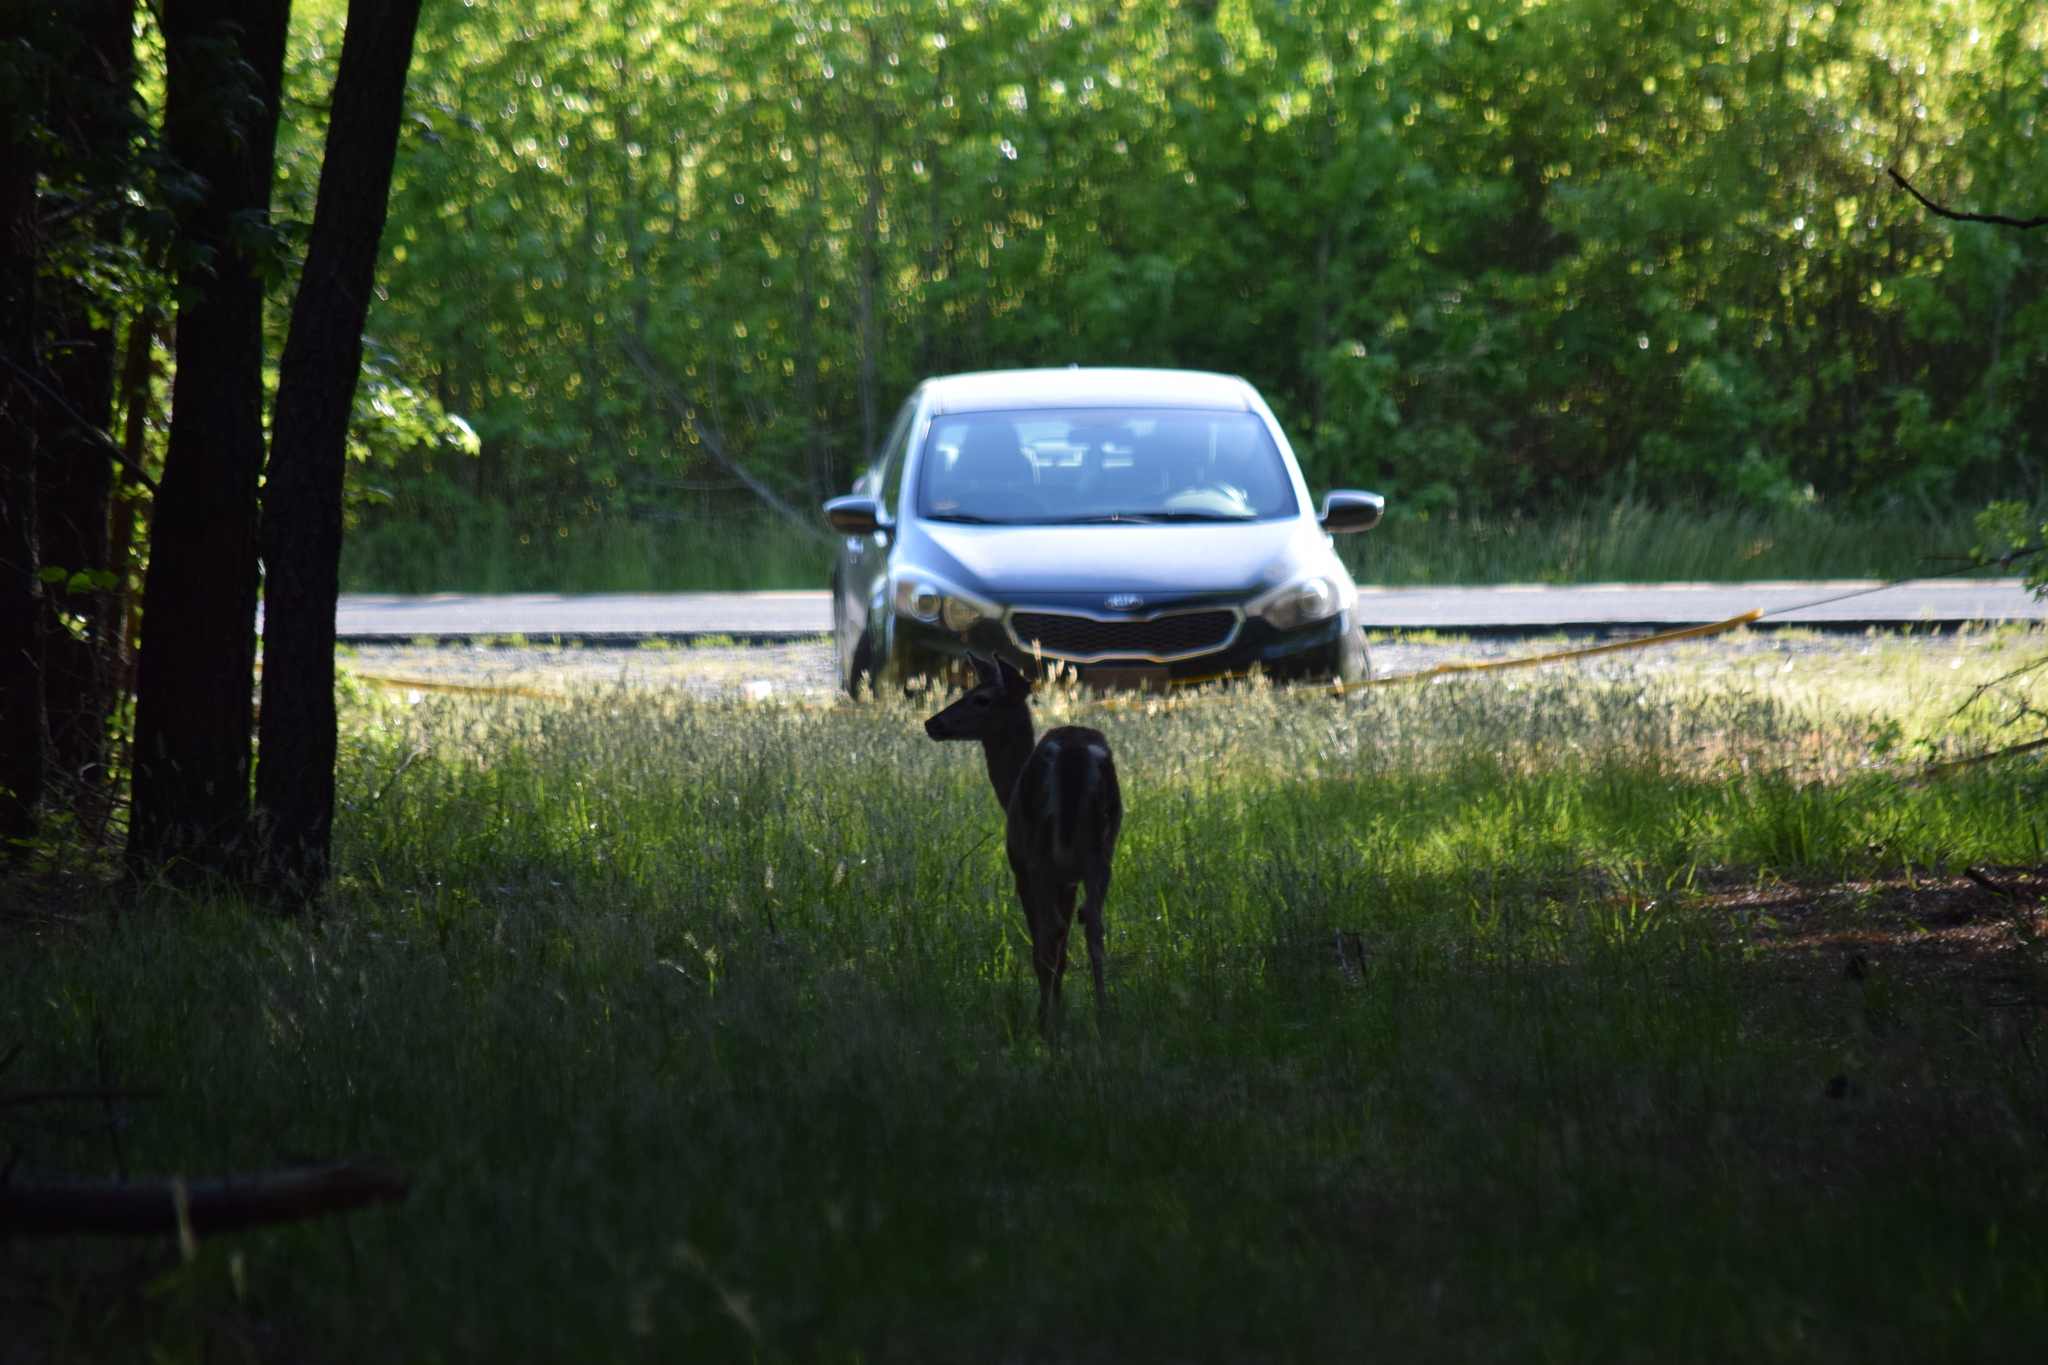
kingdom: Animalia
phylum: Chordata
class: Mammalia
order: Artiodactyla
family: Cervidae
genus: Odocoileus
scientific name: Odocoileus virginianus
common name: White-tailed deer
